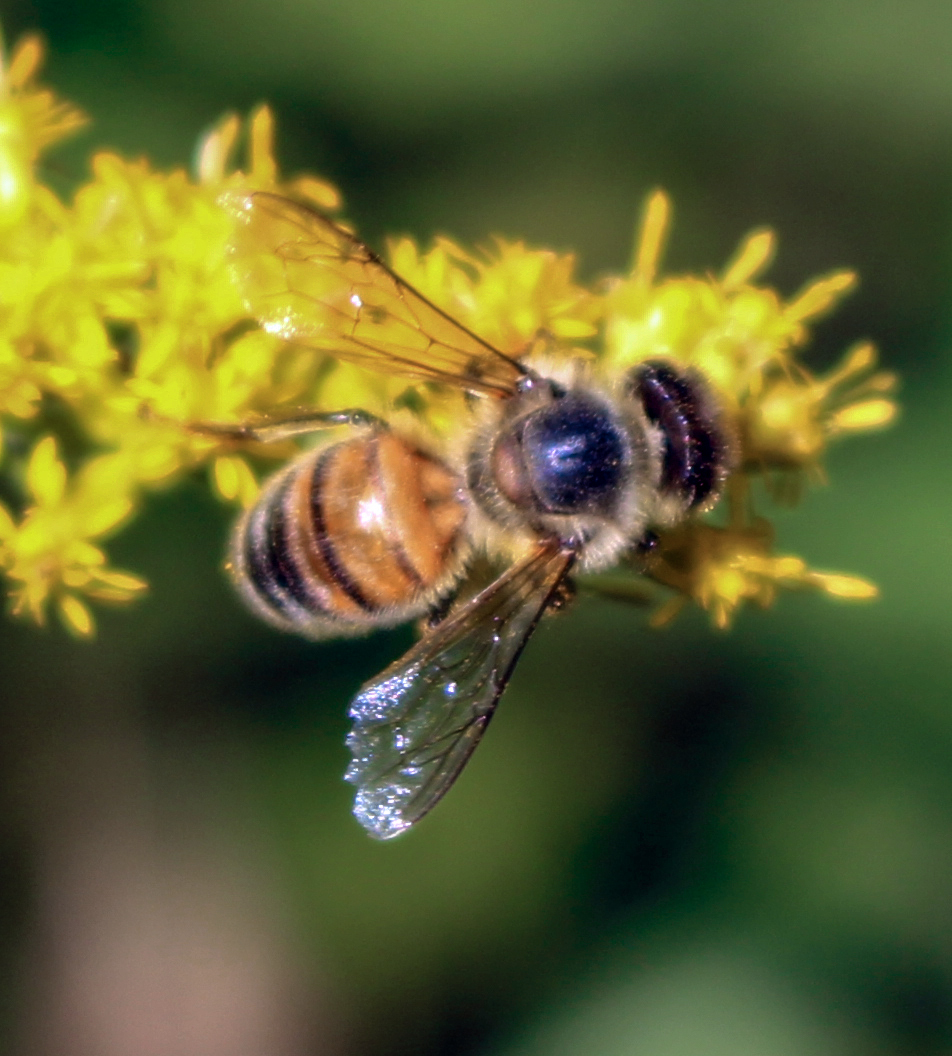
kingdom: Animalia
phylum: Arthropoda
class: Insecta
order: Hymenoptera
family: Apidae
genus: Apis
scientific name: Apis mellifera
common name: Honey bee
